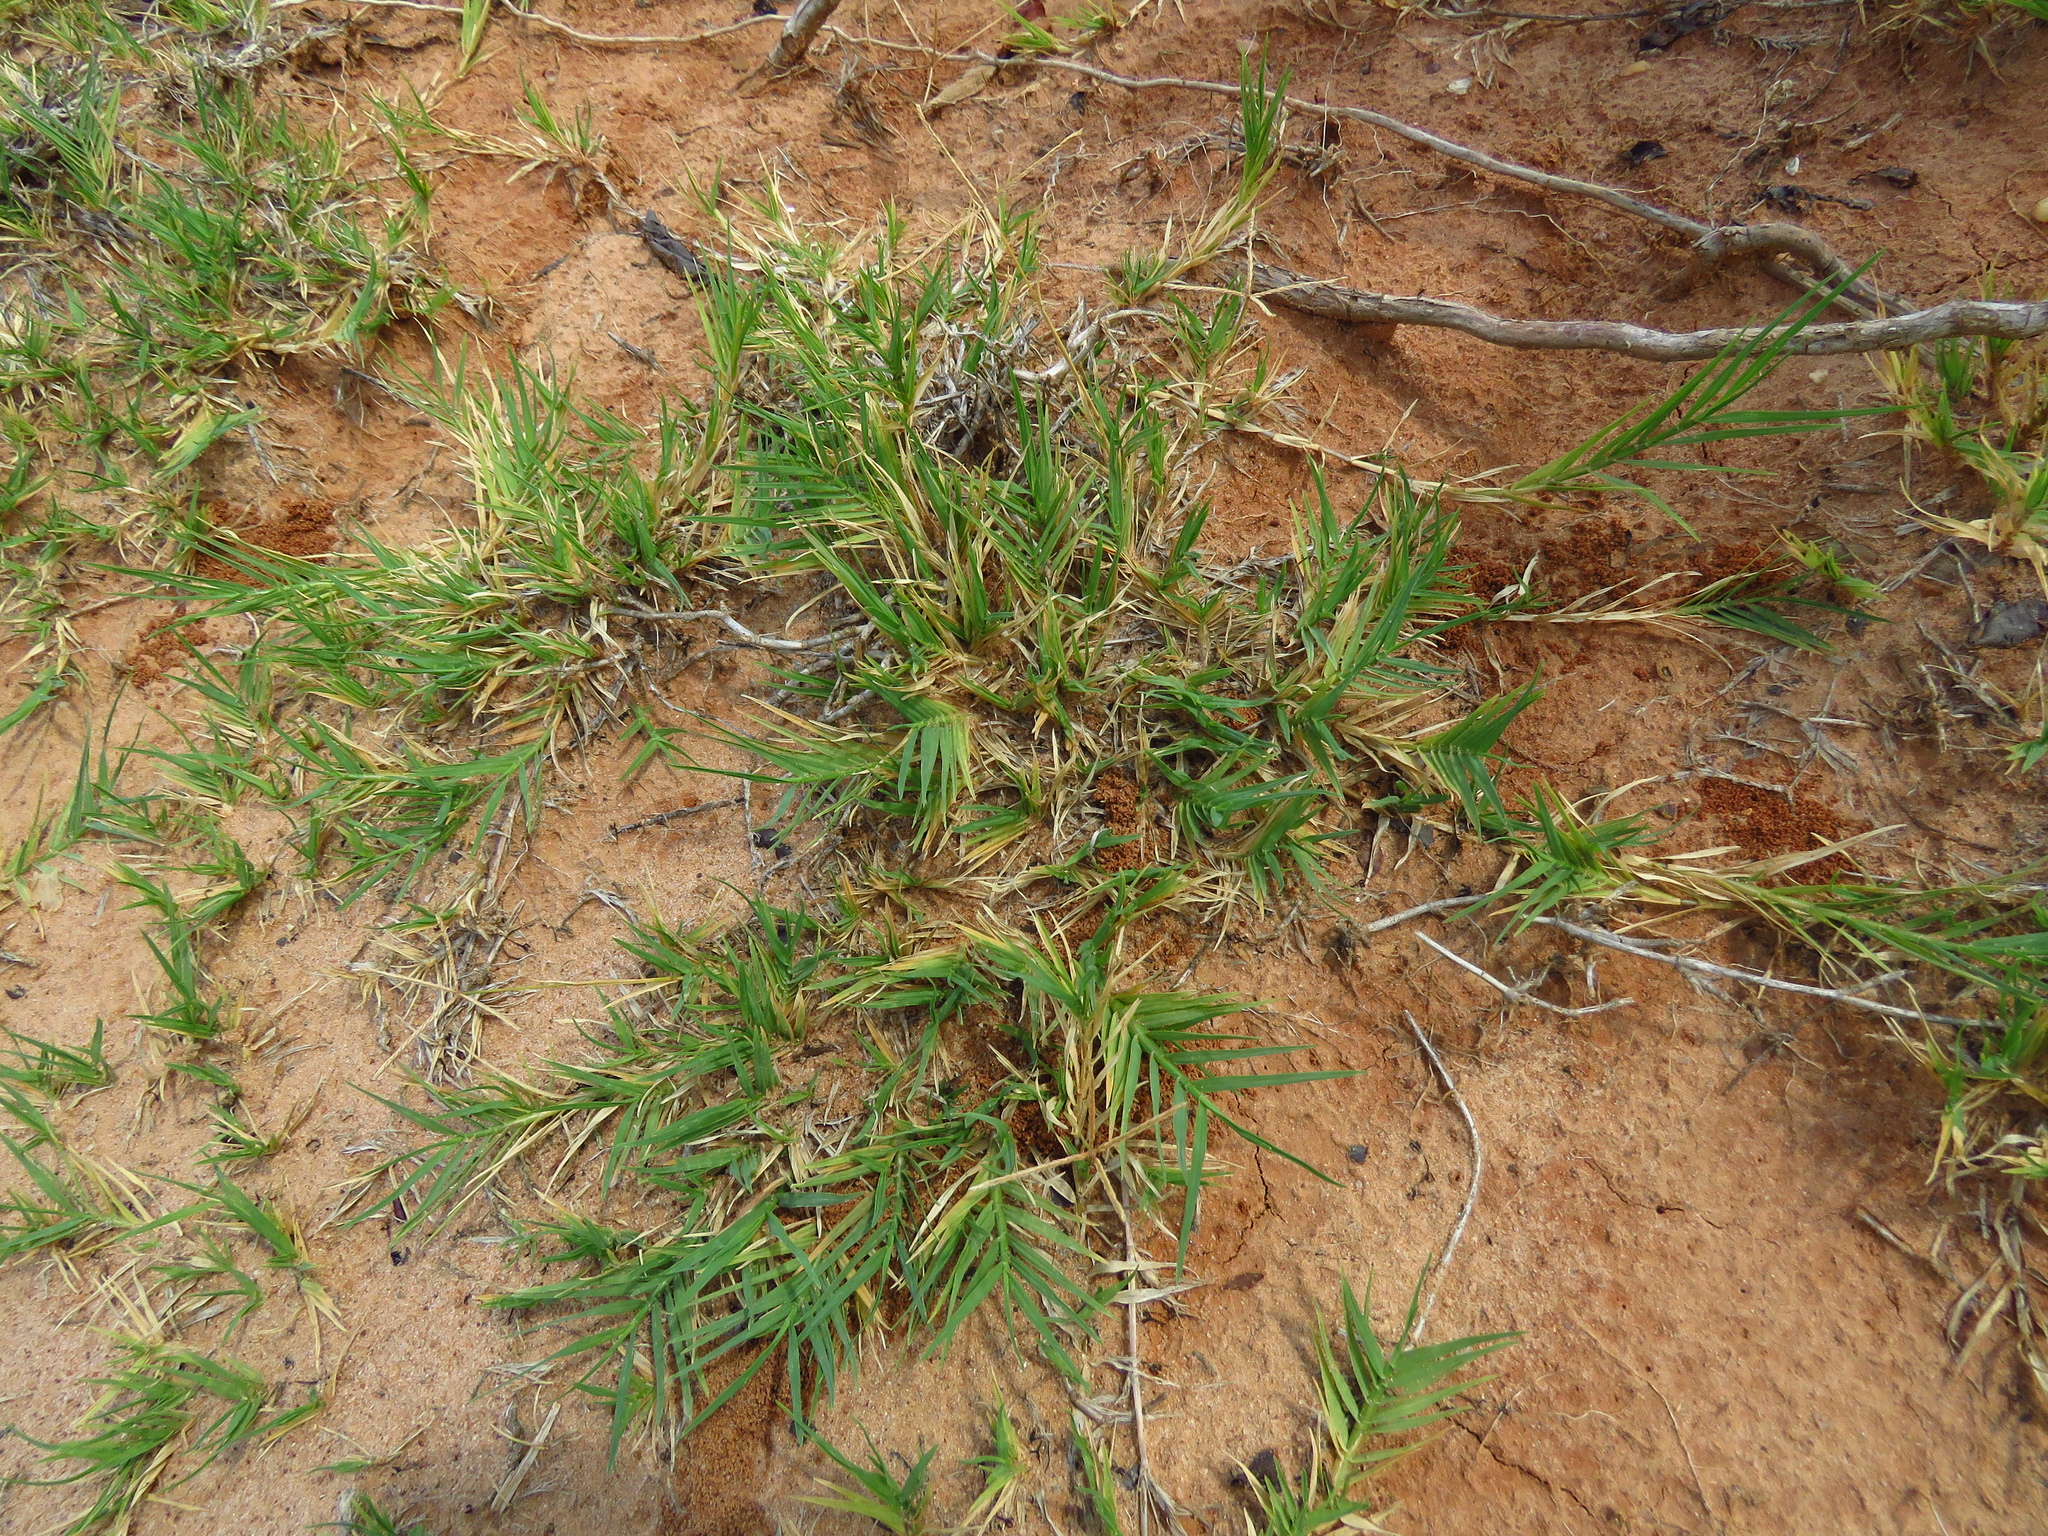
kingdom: Plantae
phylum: Tracheophyta
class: Liliopsida
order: Poales
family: Poaceae
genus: Cynodon
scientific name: Cynodon dactylon
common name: Bermuda grass
